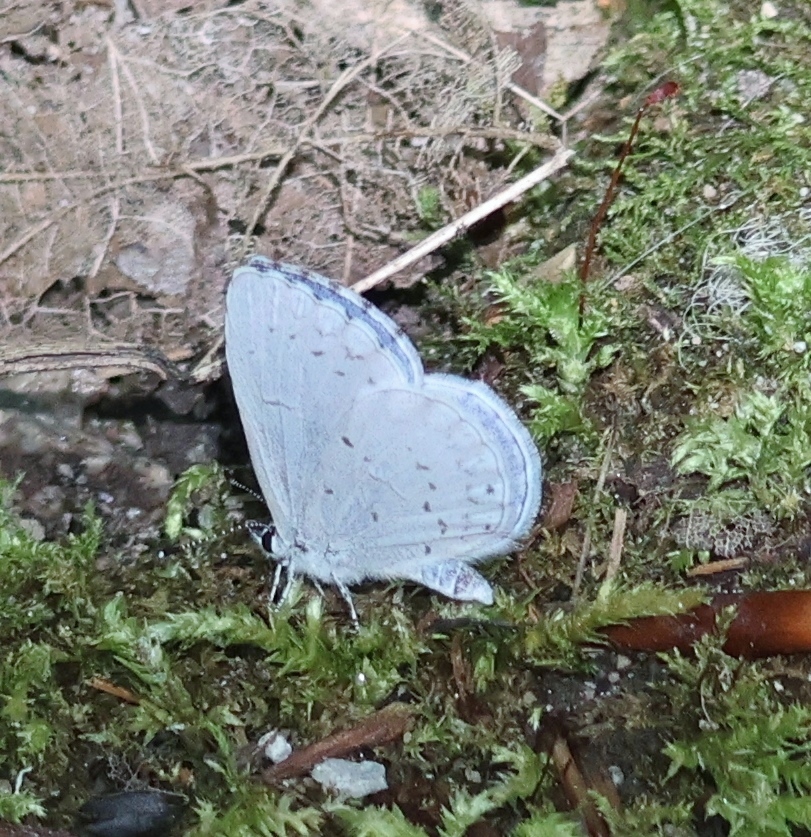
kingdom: Animalia
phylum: Arthropoda
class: Insecta
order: Lepidoptera
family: Lycaenidae
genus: Cyaniris
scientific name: Cyaniris neglecta
